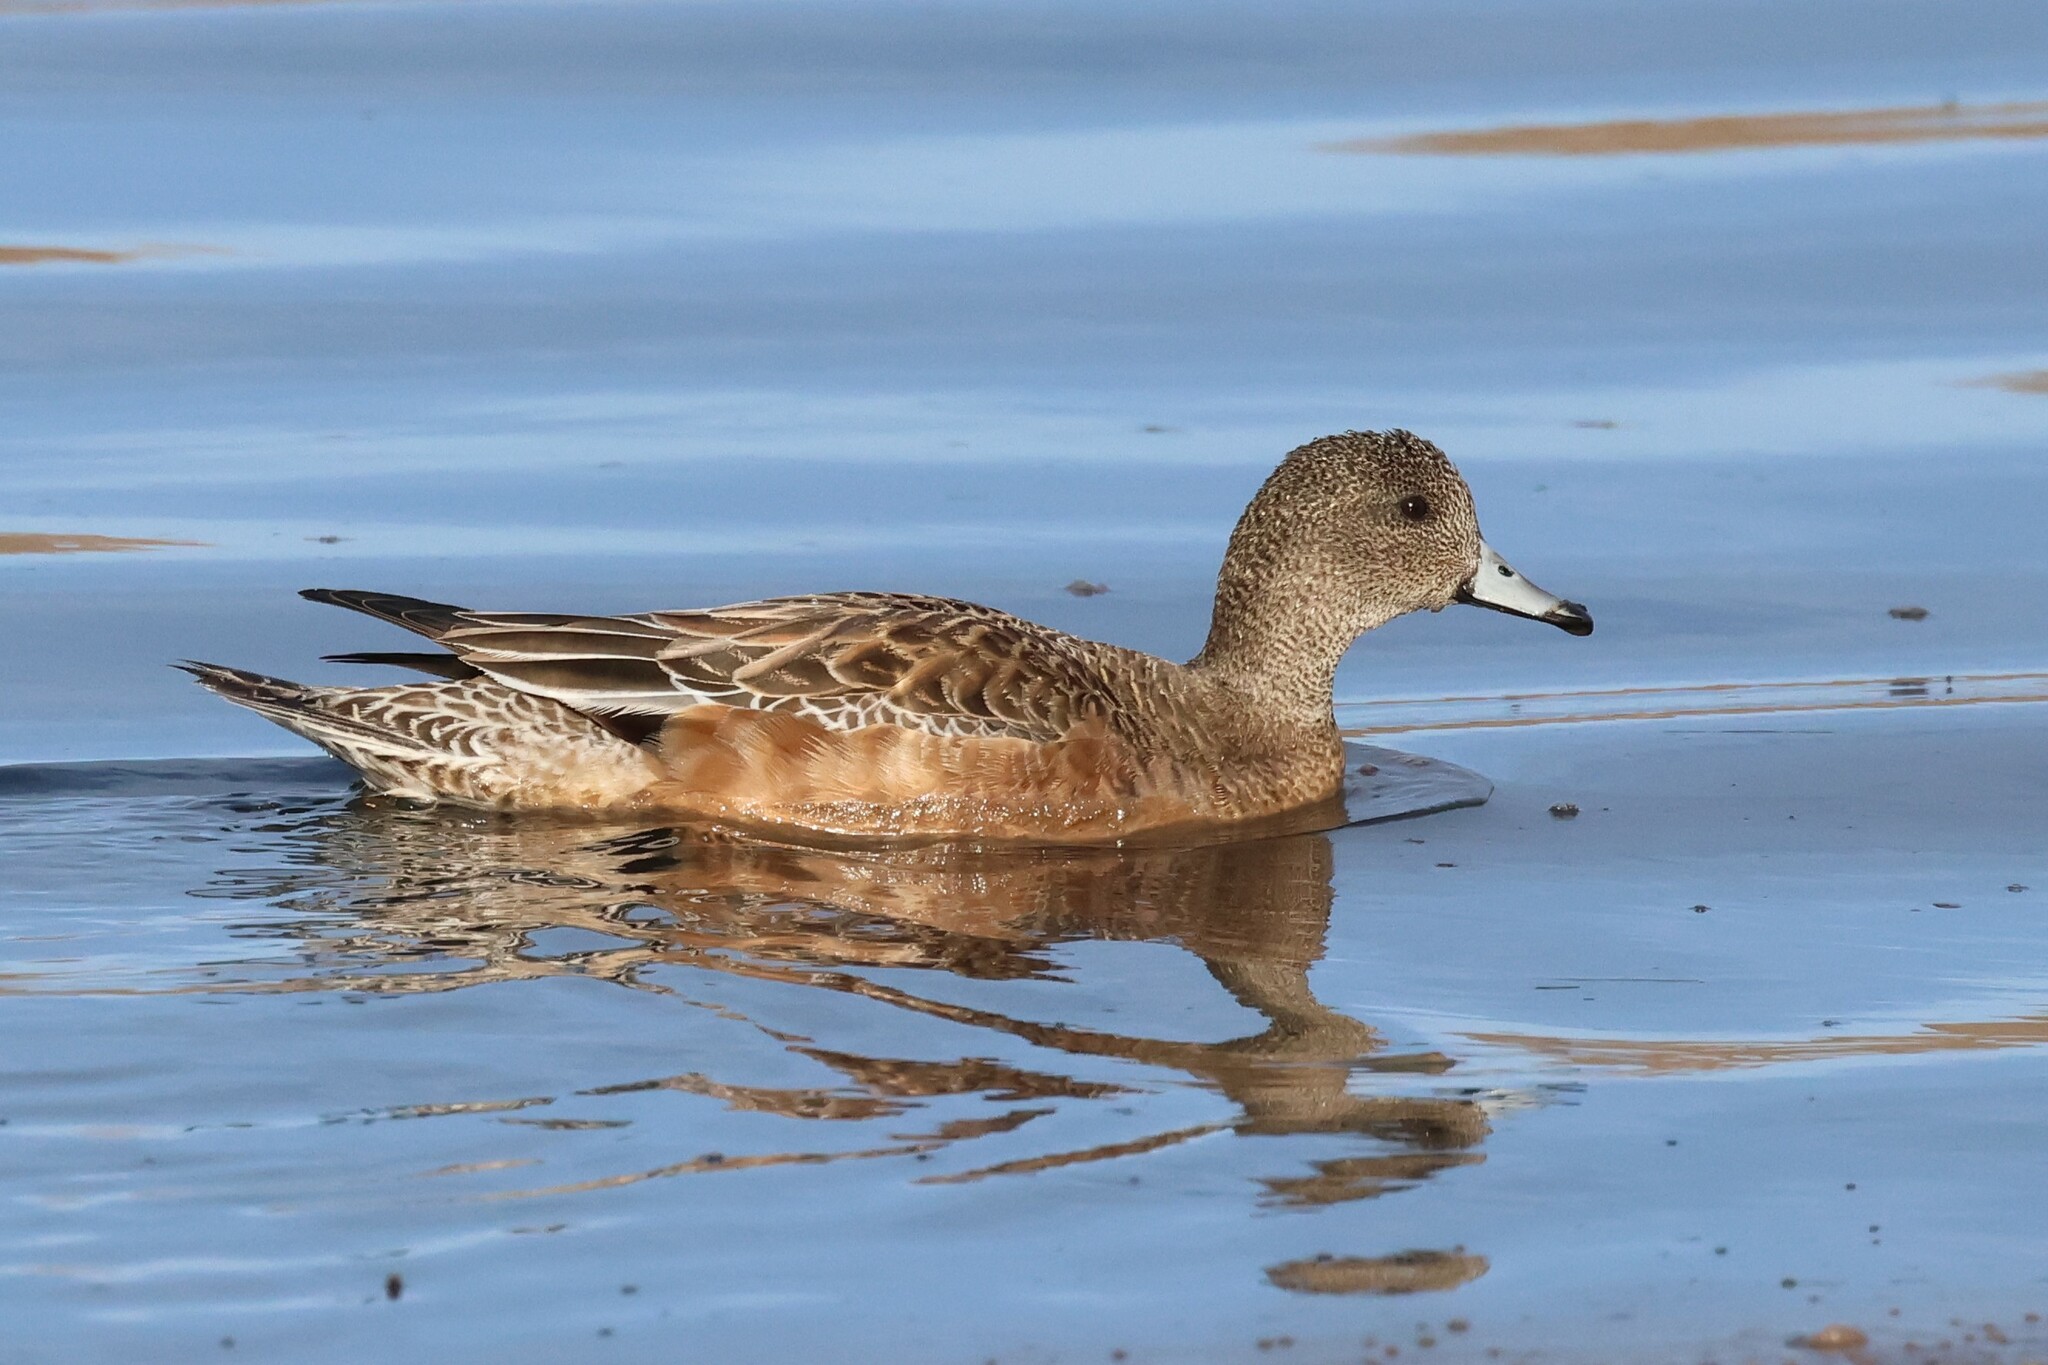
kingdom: Animalia
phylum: Chordata
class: Aves
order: Anseriformes
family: Anatidae
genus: Mareca
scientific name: Mareca americana
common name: American wigeon
